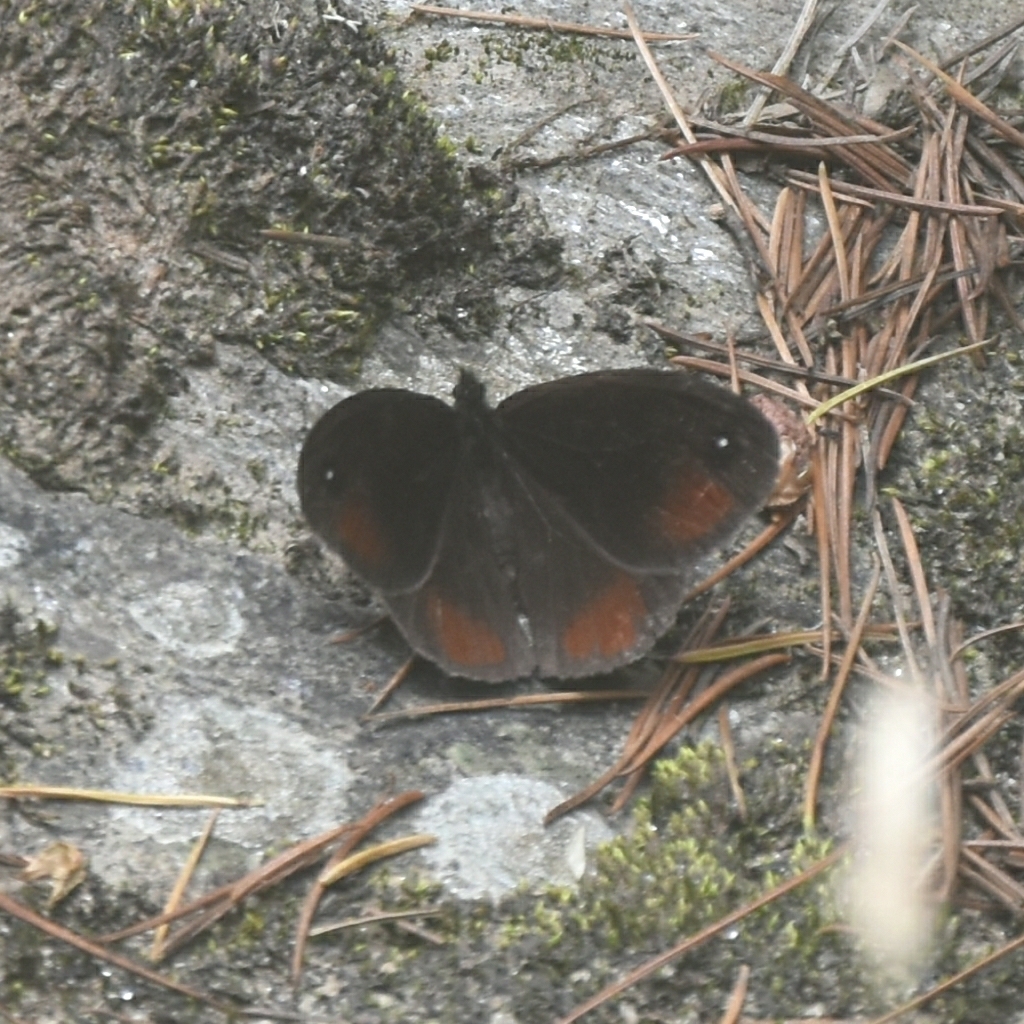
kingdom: Animalia
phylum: Arthropoda
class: Insecta
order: Lepidoptera
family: Nymphalidae
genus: Callerebia
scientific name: Callerebia
